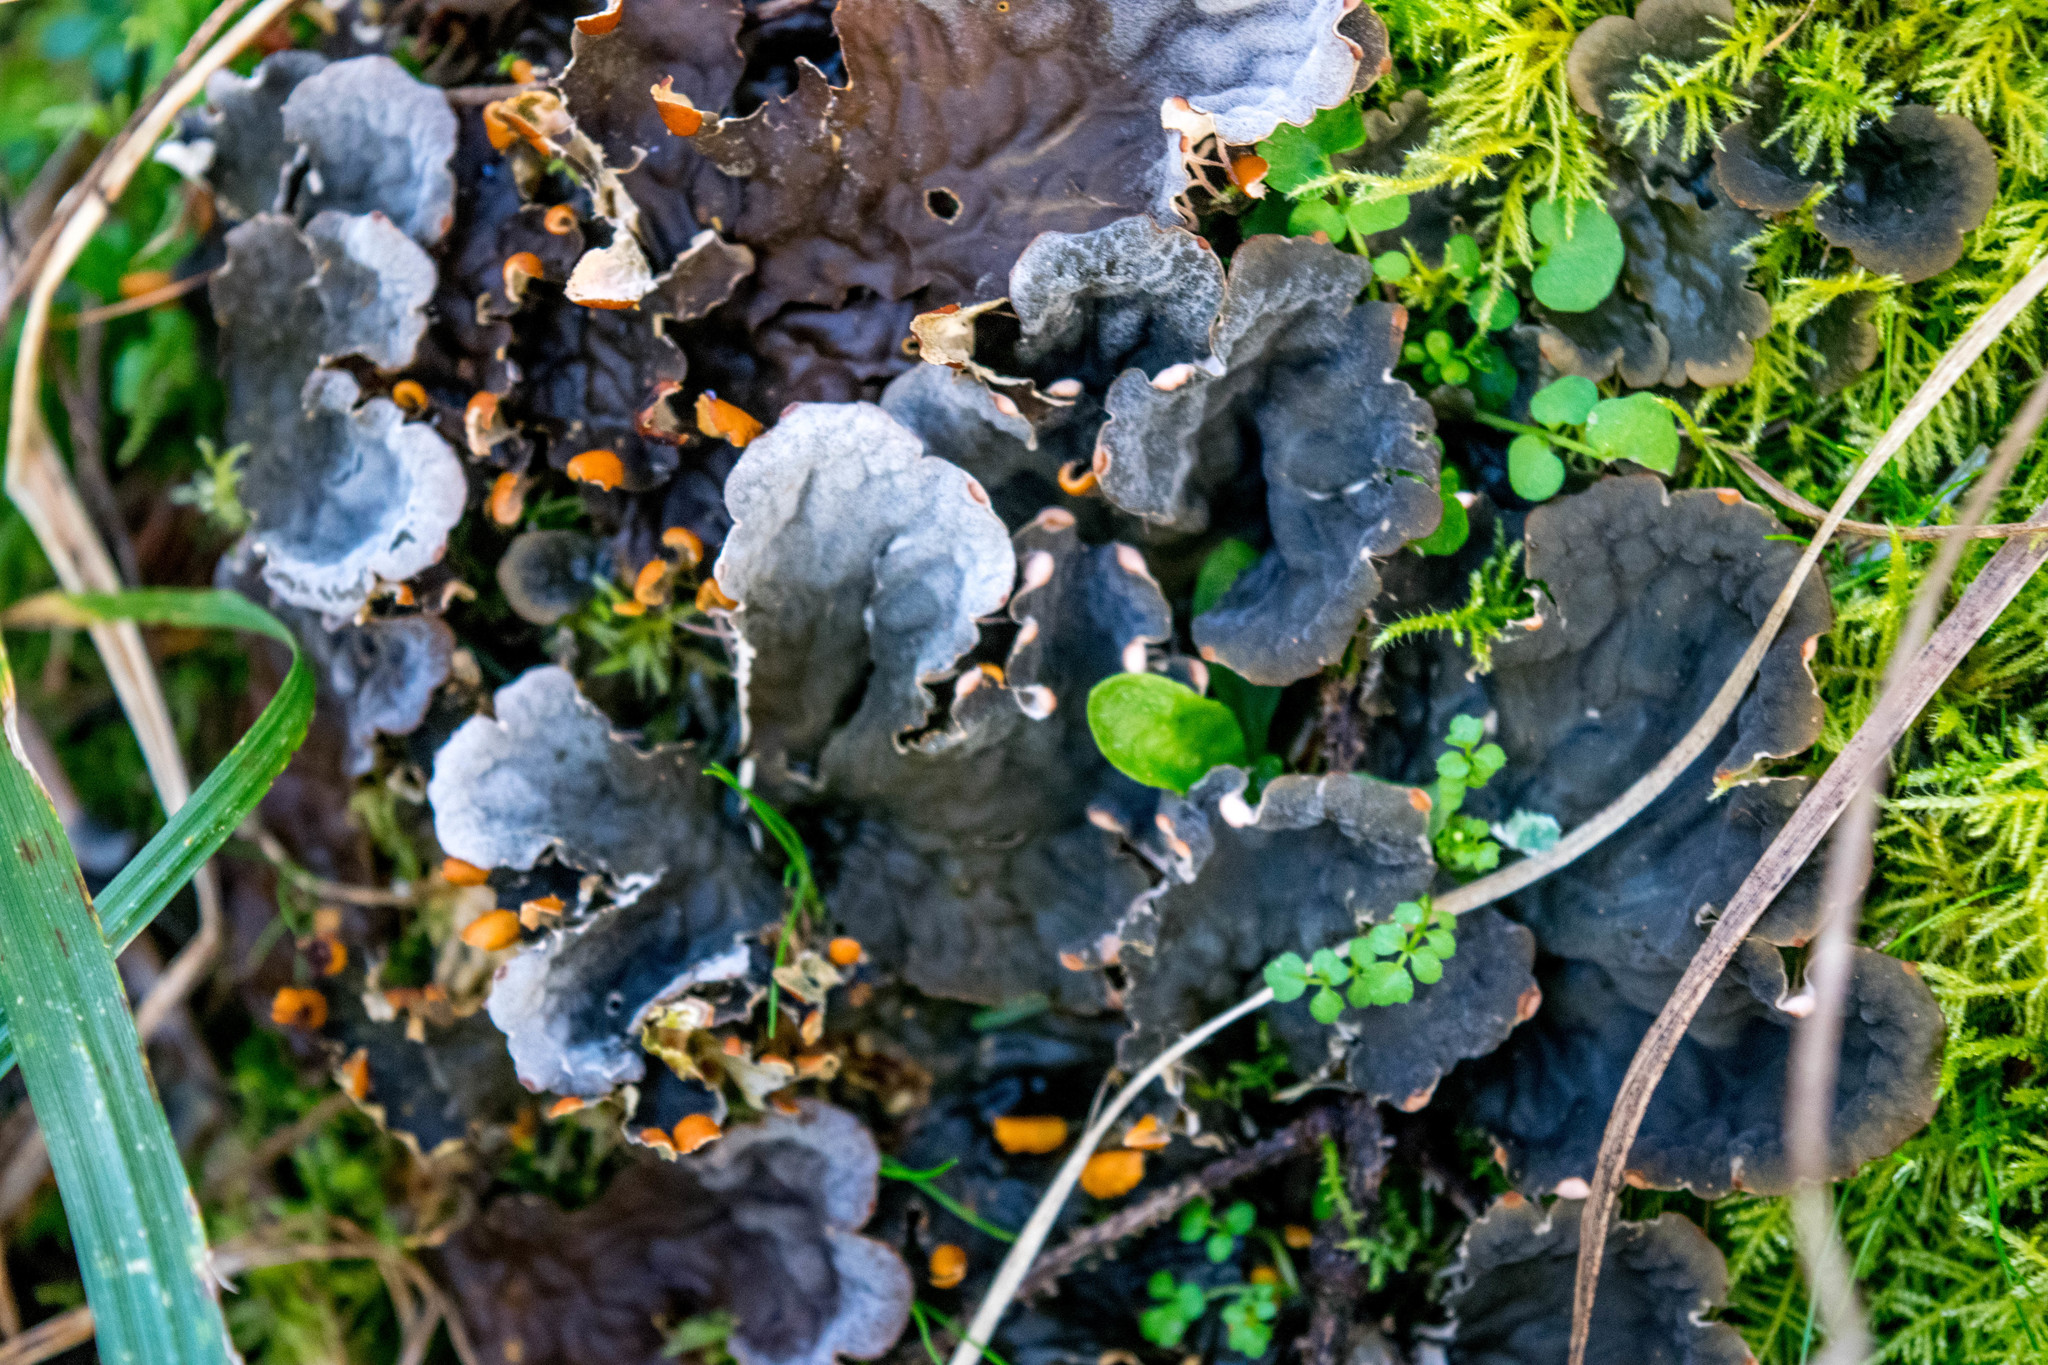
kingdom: Fungi
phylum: Ascomycota
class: Lecanoromycetes
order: Peltigerales
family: Peltigeraceae
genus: Peltigera
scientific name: Peltigera membranacea
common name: Membranous pelt lichen
